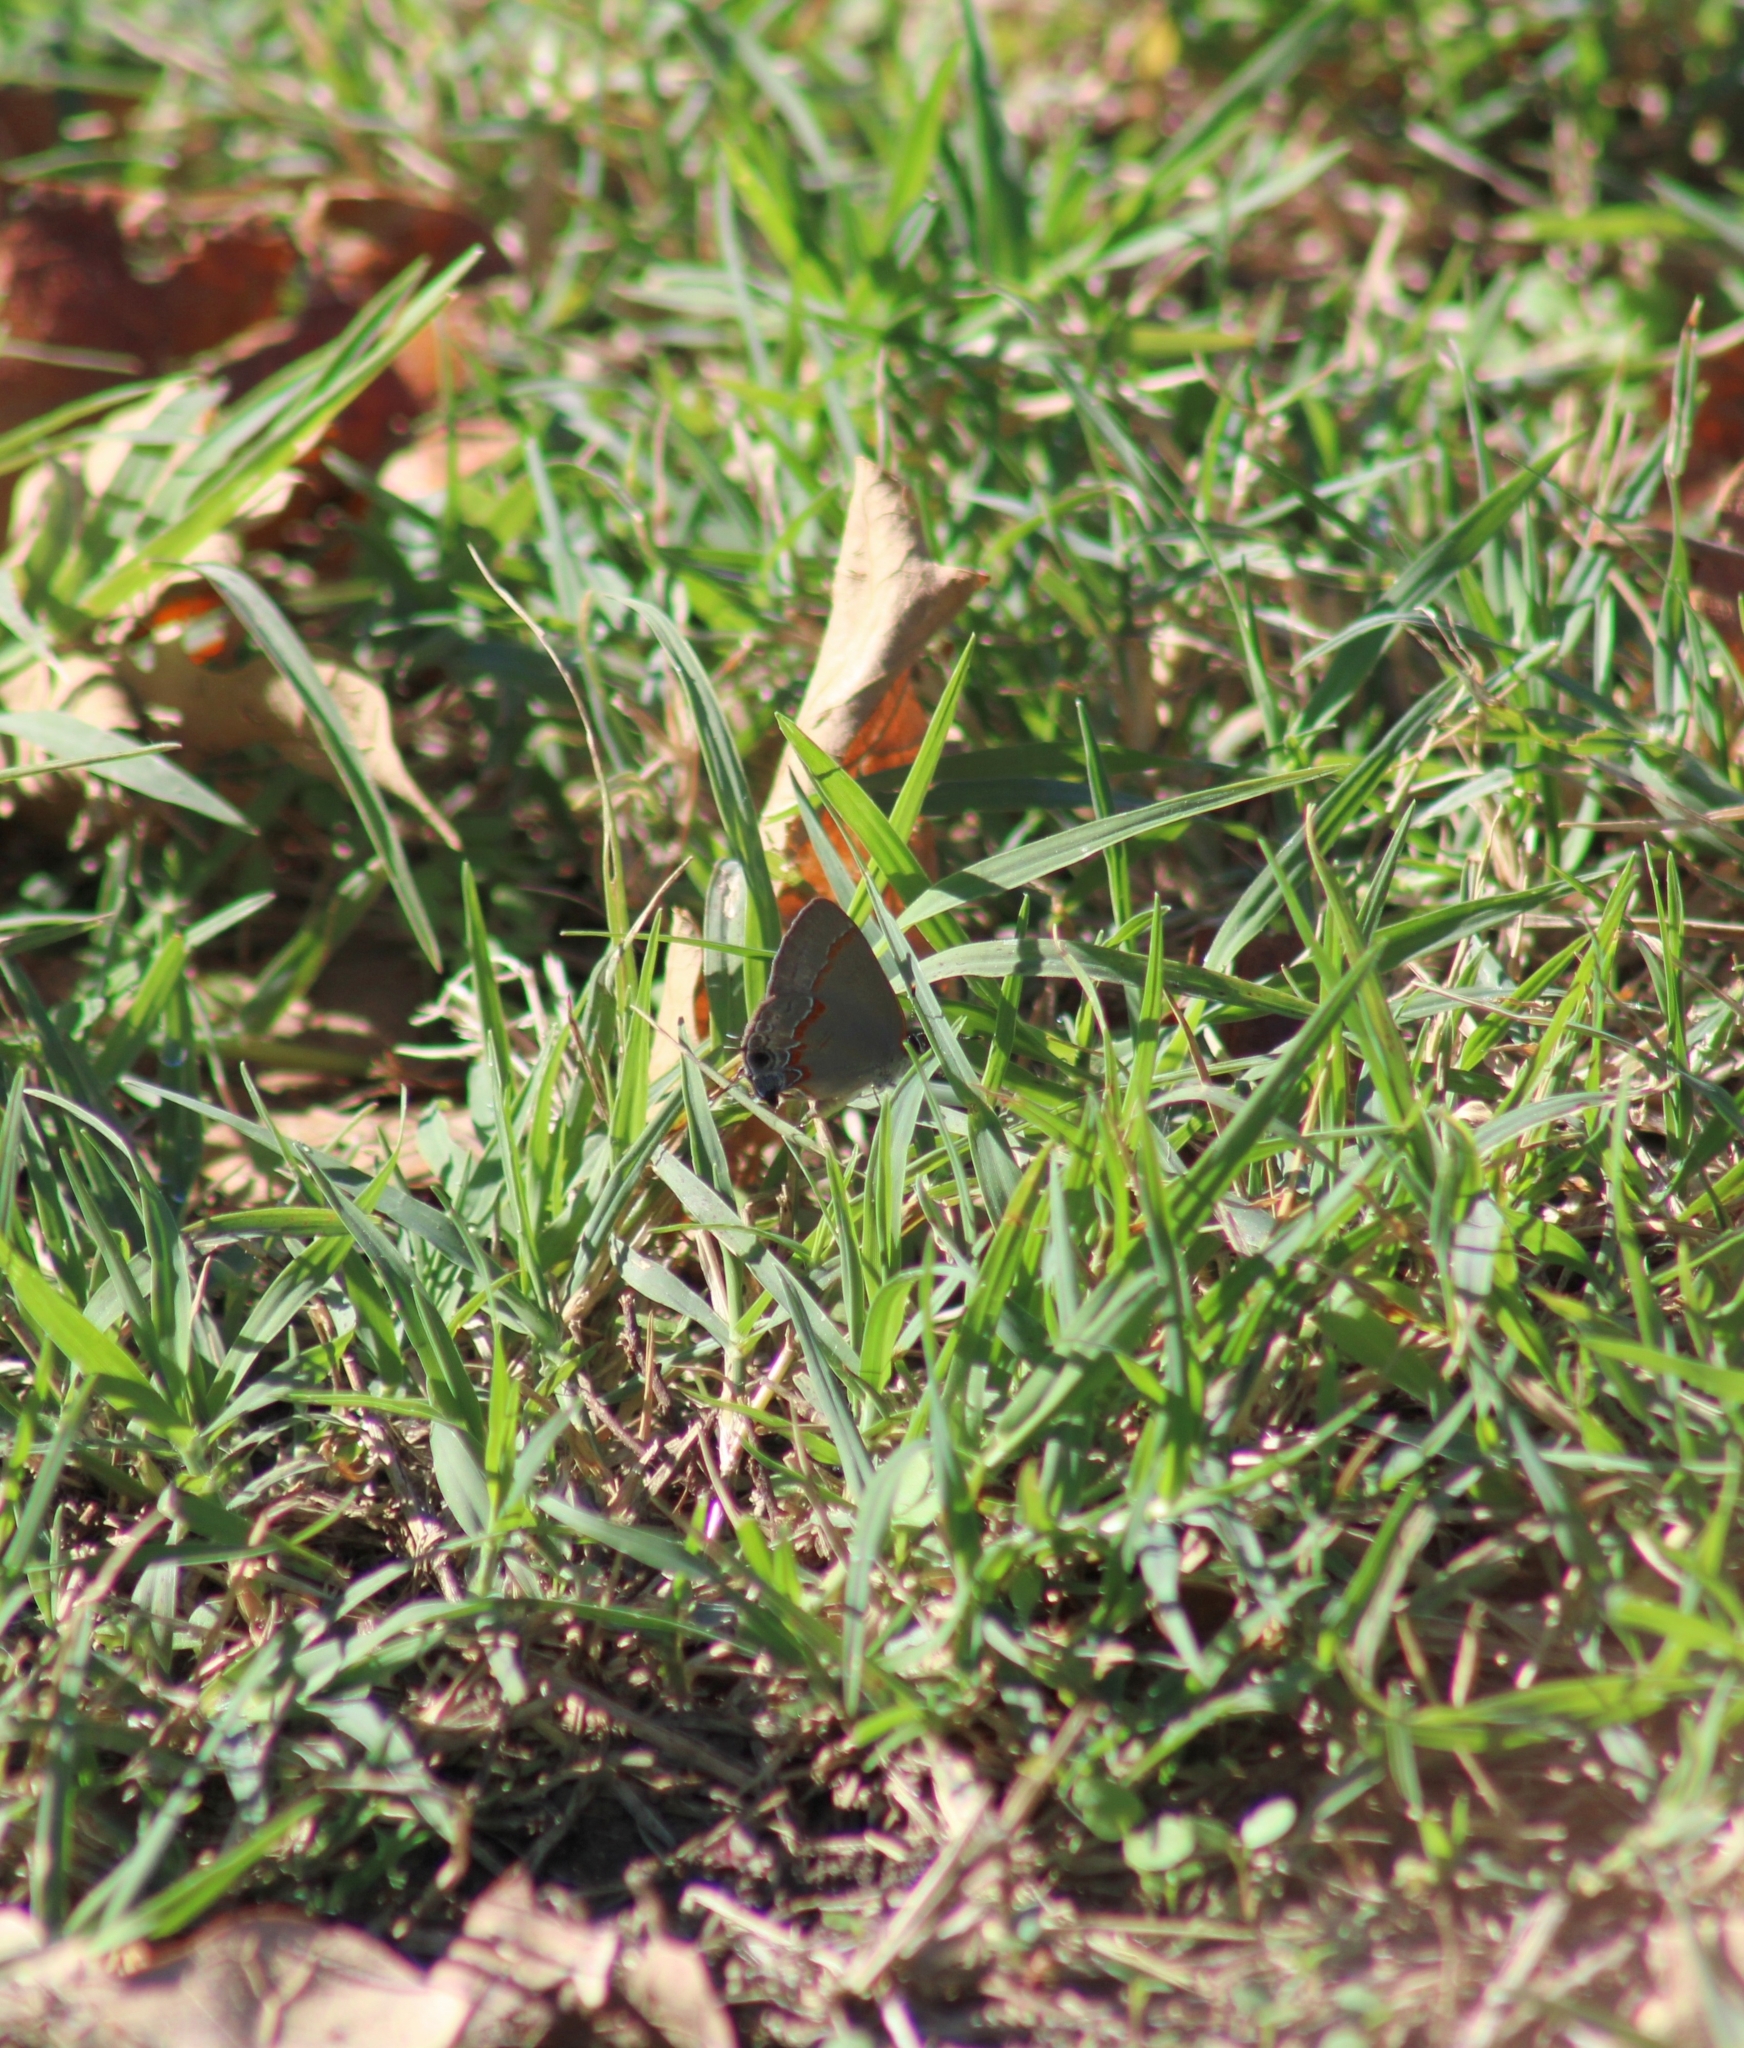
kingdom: Animalia
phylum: Arthropoda
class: Insecta
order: Lepidoptera
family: Lycaenidae
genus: Calycopis
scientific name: Calycopis cecrops
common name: Red-banded hairstreak
